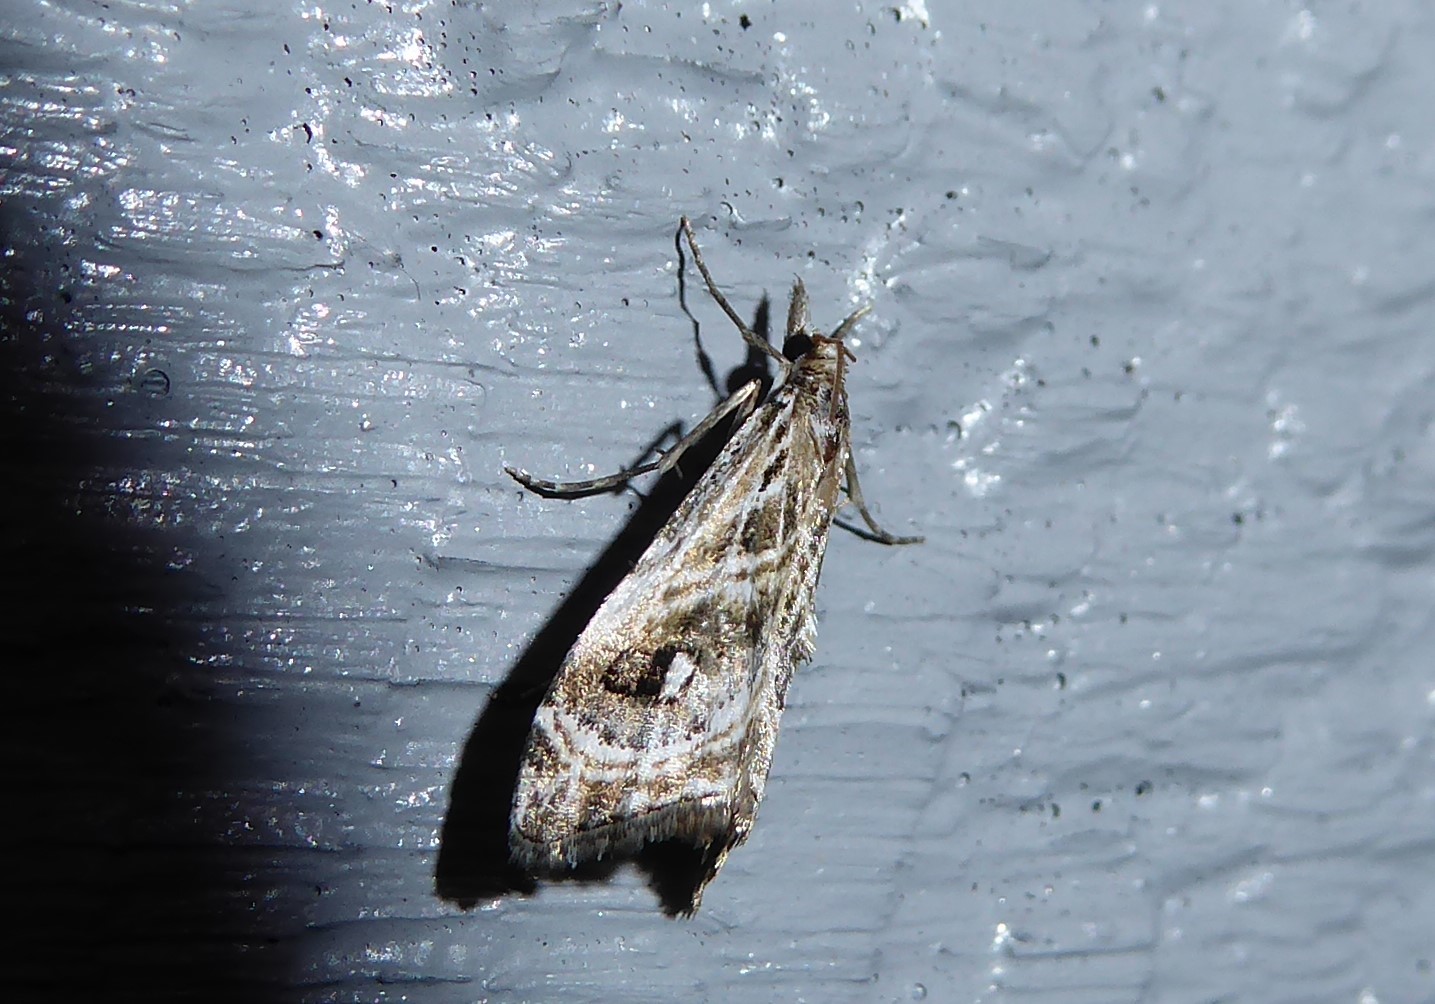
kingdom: Animalia
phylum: Arthropoda
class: Insecta
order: Lepidoptera
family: Crambidae
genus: Gadira
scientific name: Gadira acerella
